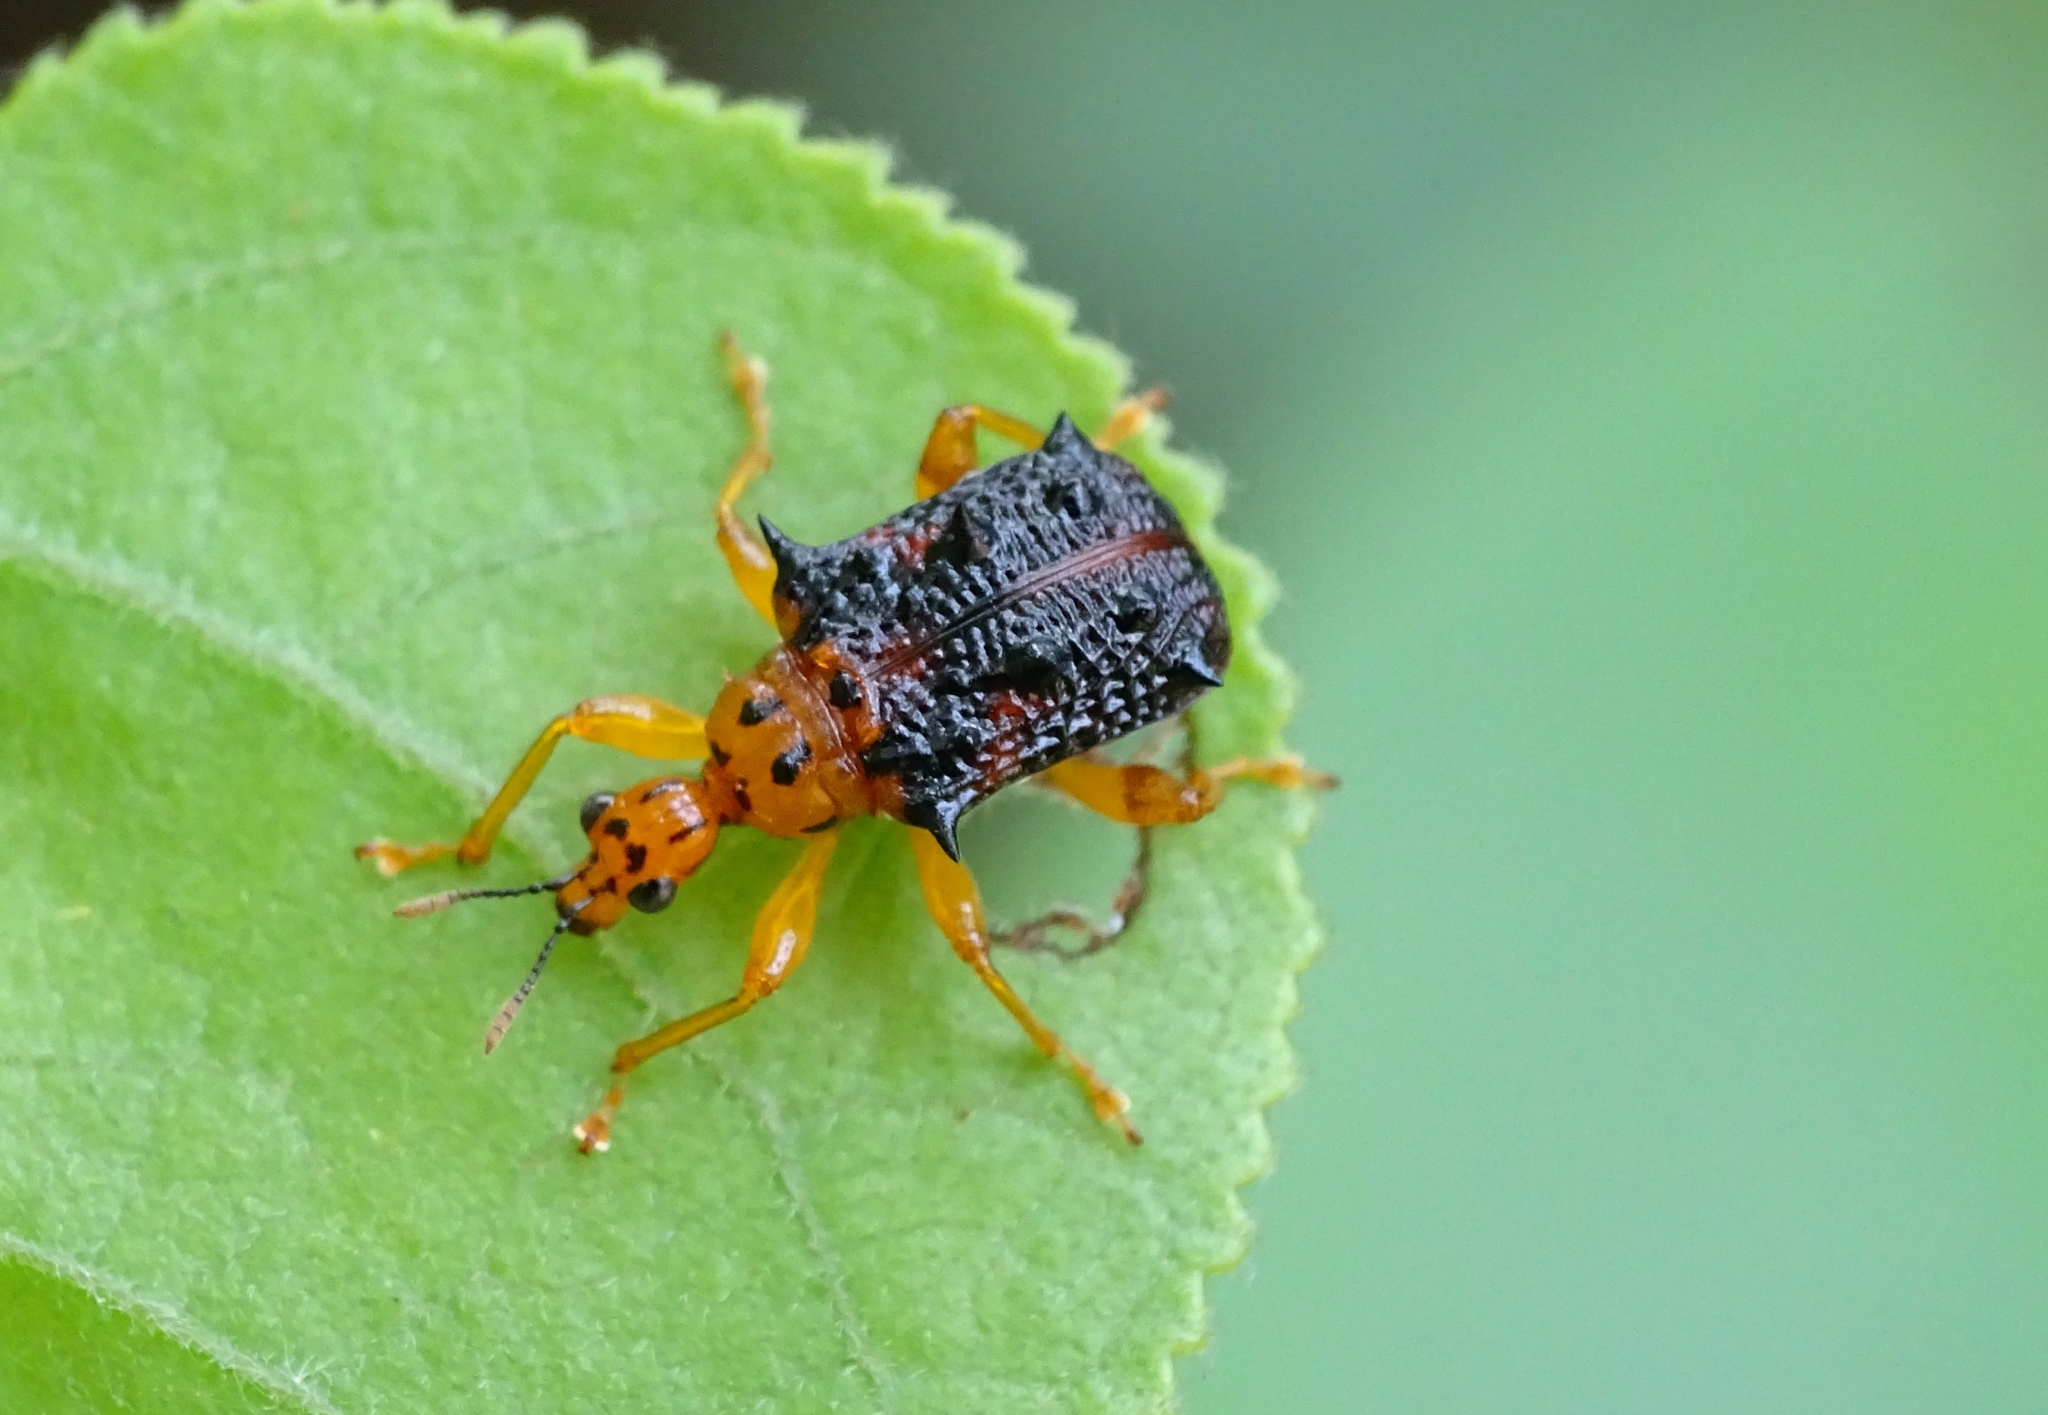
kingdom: Animalia
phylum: Arthropoda
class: Insecta
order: Coleoptera
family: Attelabidae
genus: Hoplapoderus
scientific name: Hoplapoderus hystrix
